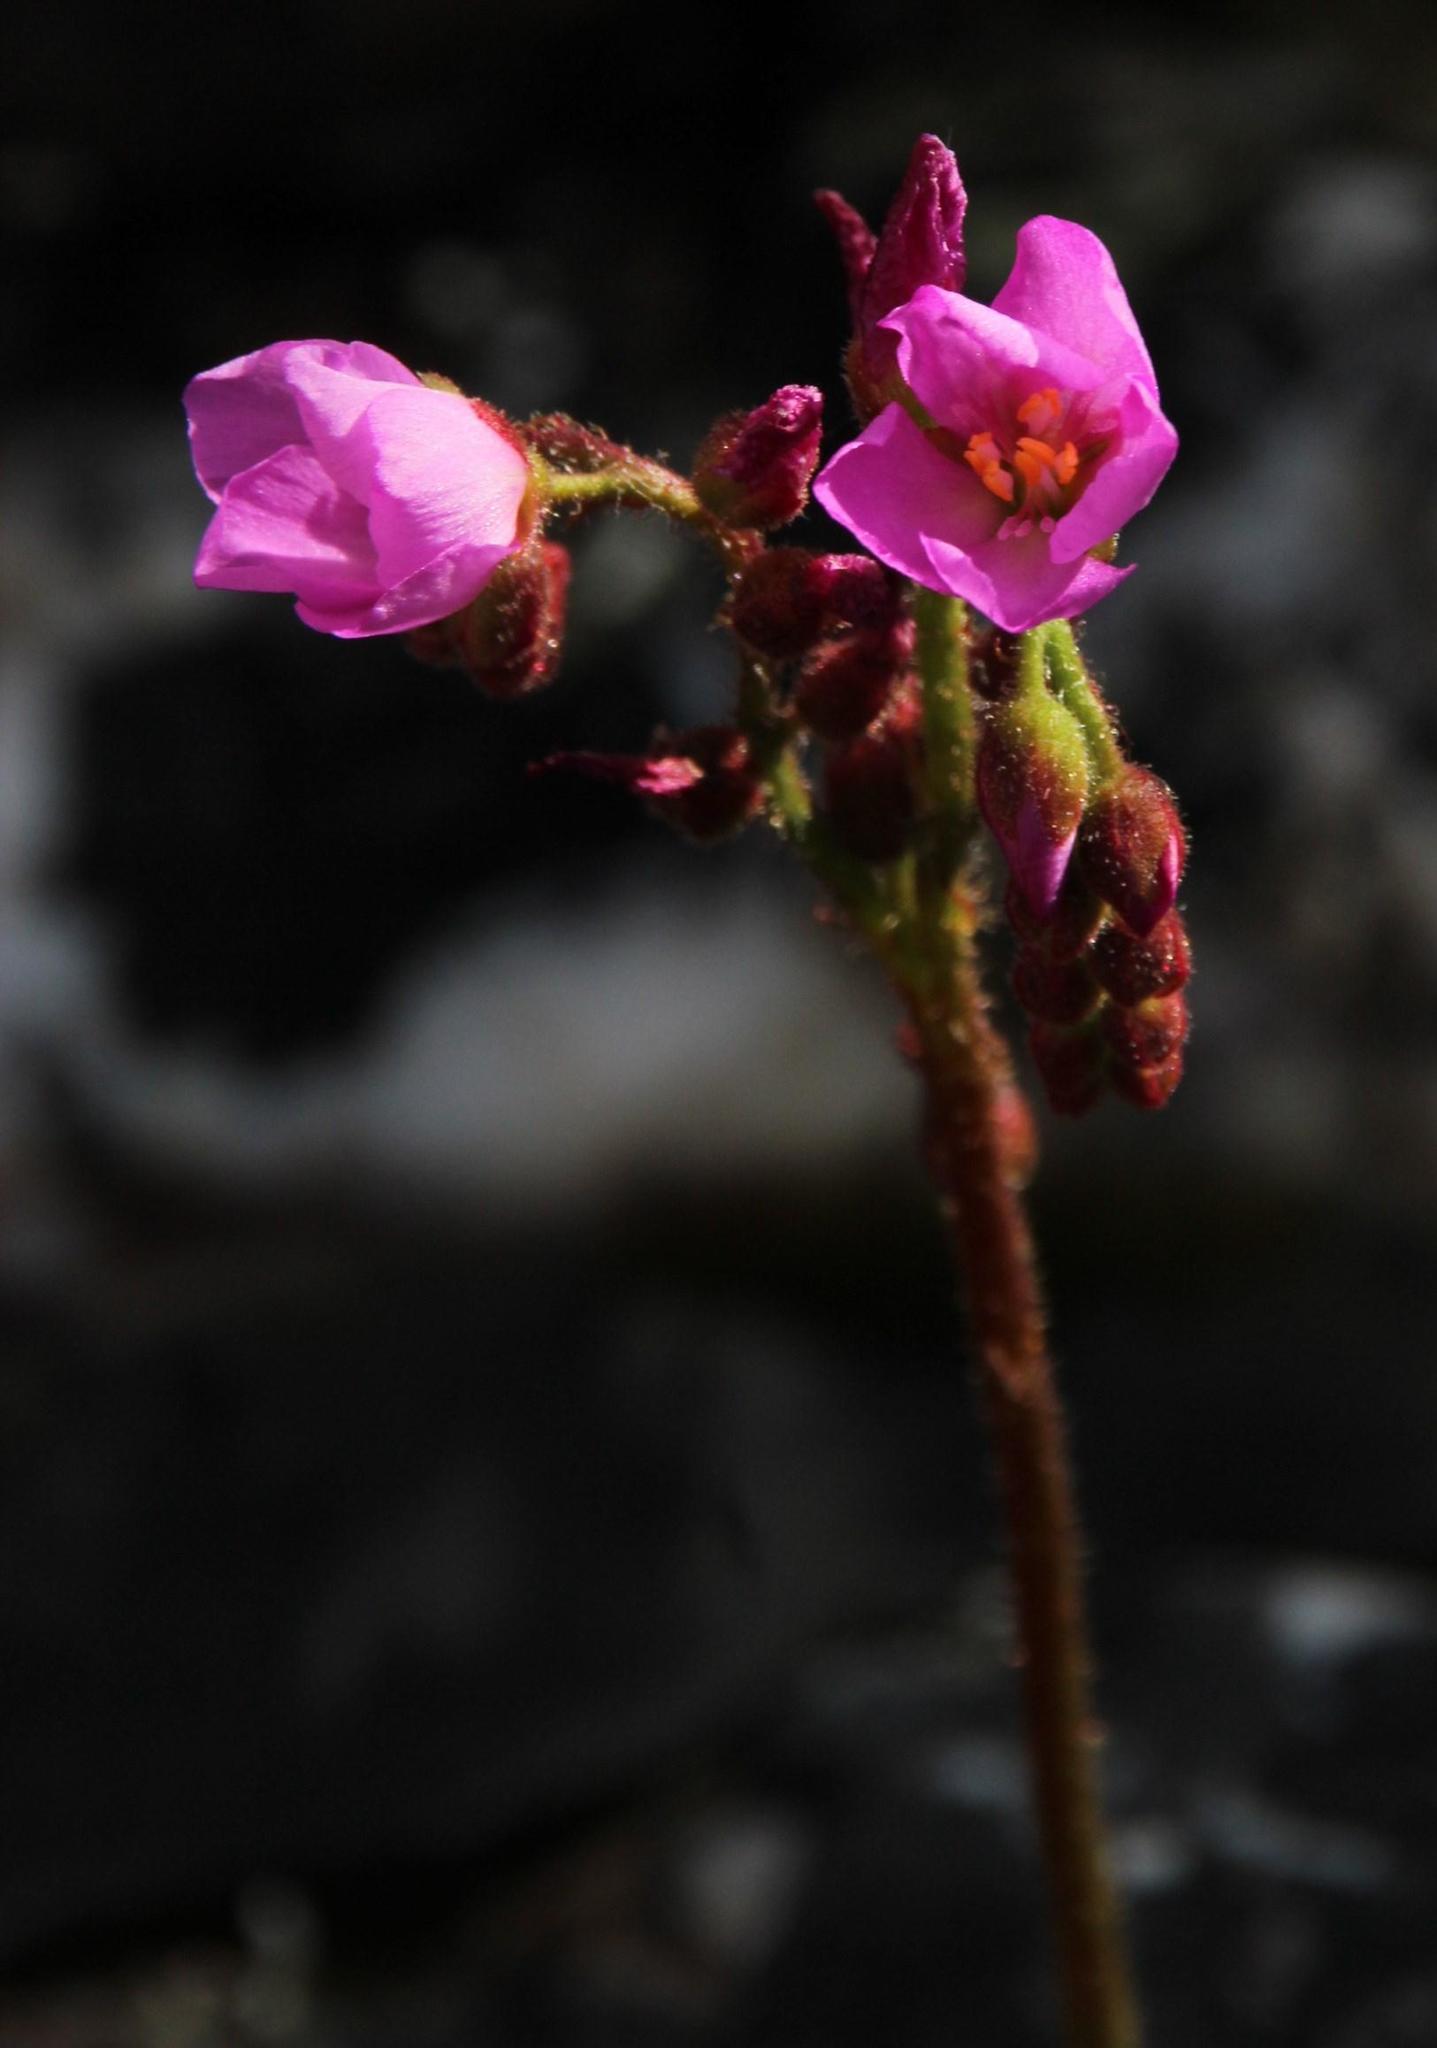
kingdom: Plantae
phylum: Tracheophyta
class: Magnoliopsida
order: Caryophyllales
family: Droseraceae
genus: Drosera
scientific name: Drosera capensis
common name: Cape sundew
